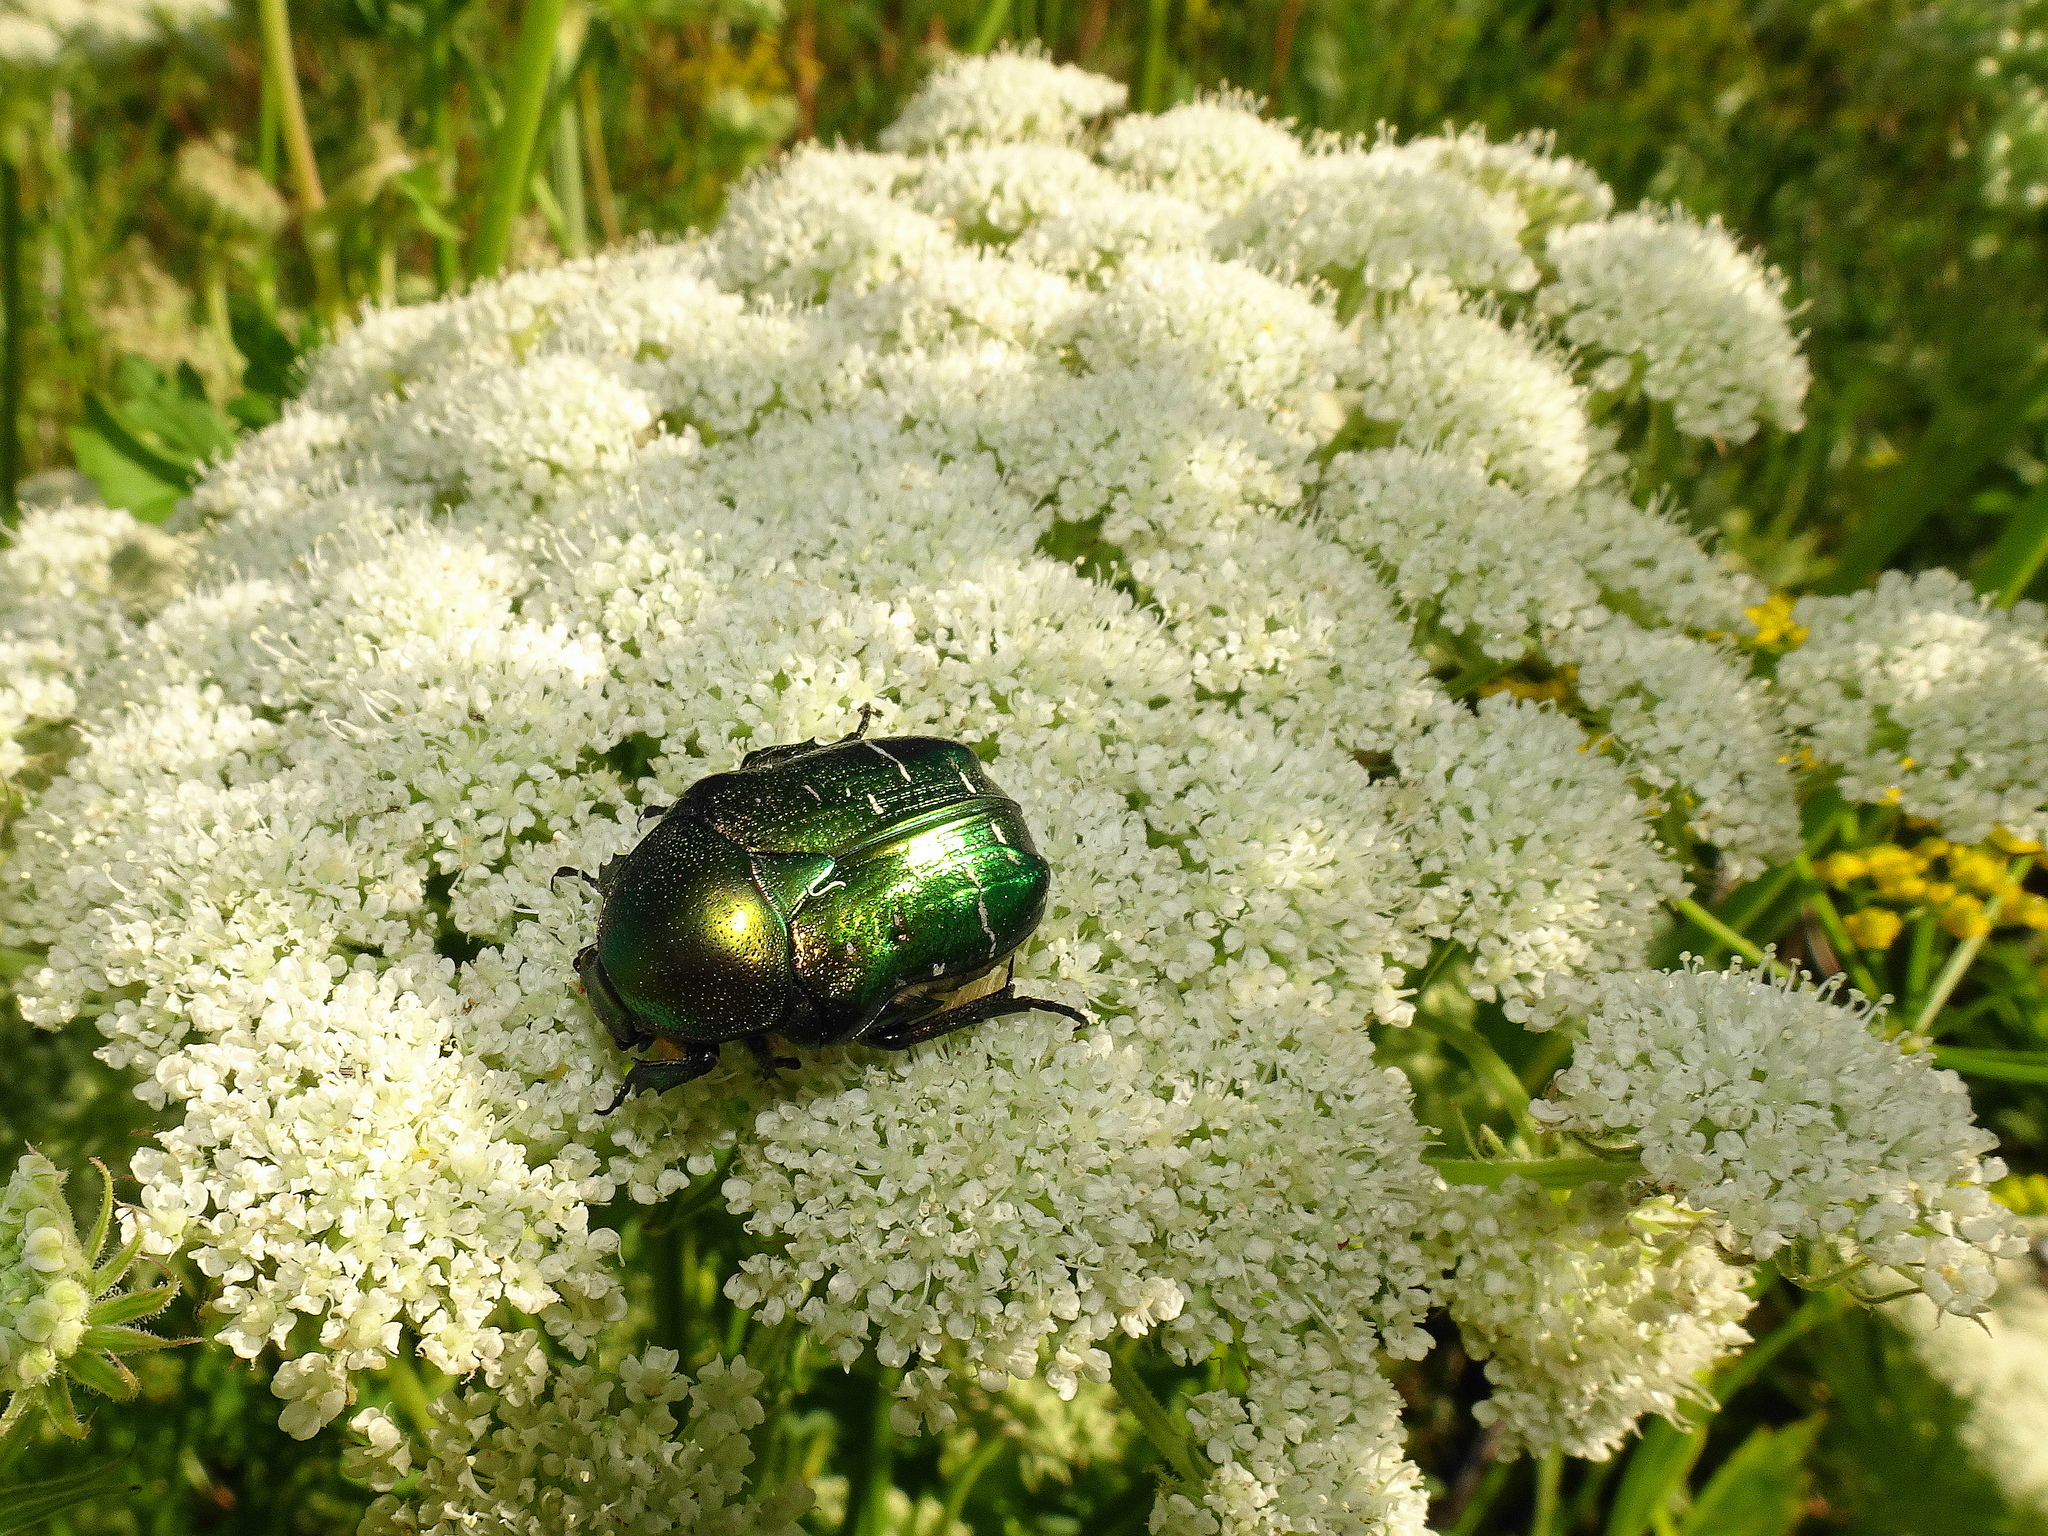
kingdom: Animalia
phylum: Arthropoda
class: Insecta
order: Coleoptera
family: Scarabaeidae
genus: Cetonia
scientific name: Cetonia aurata
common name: Rose chafer
